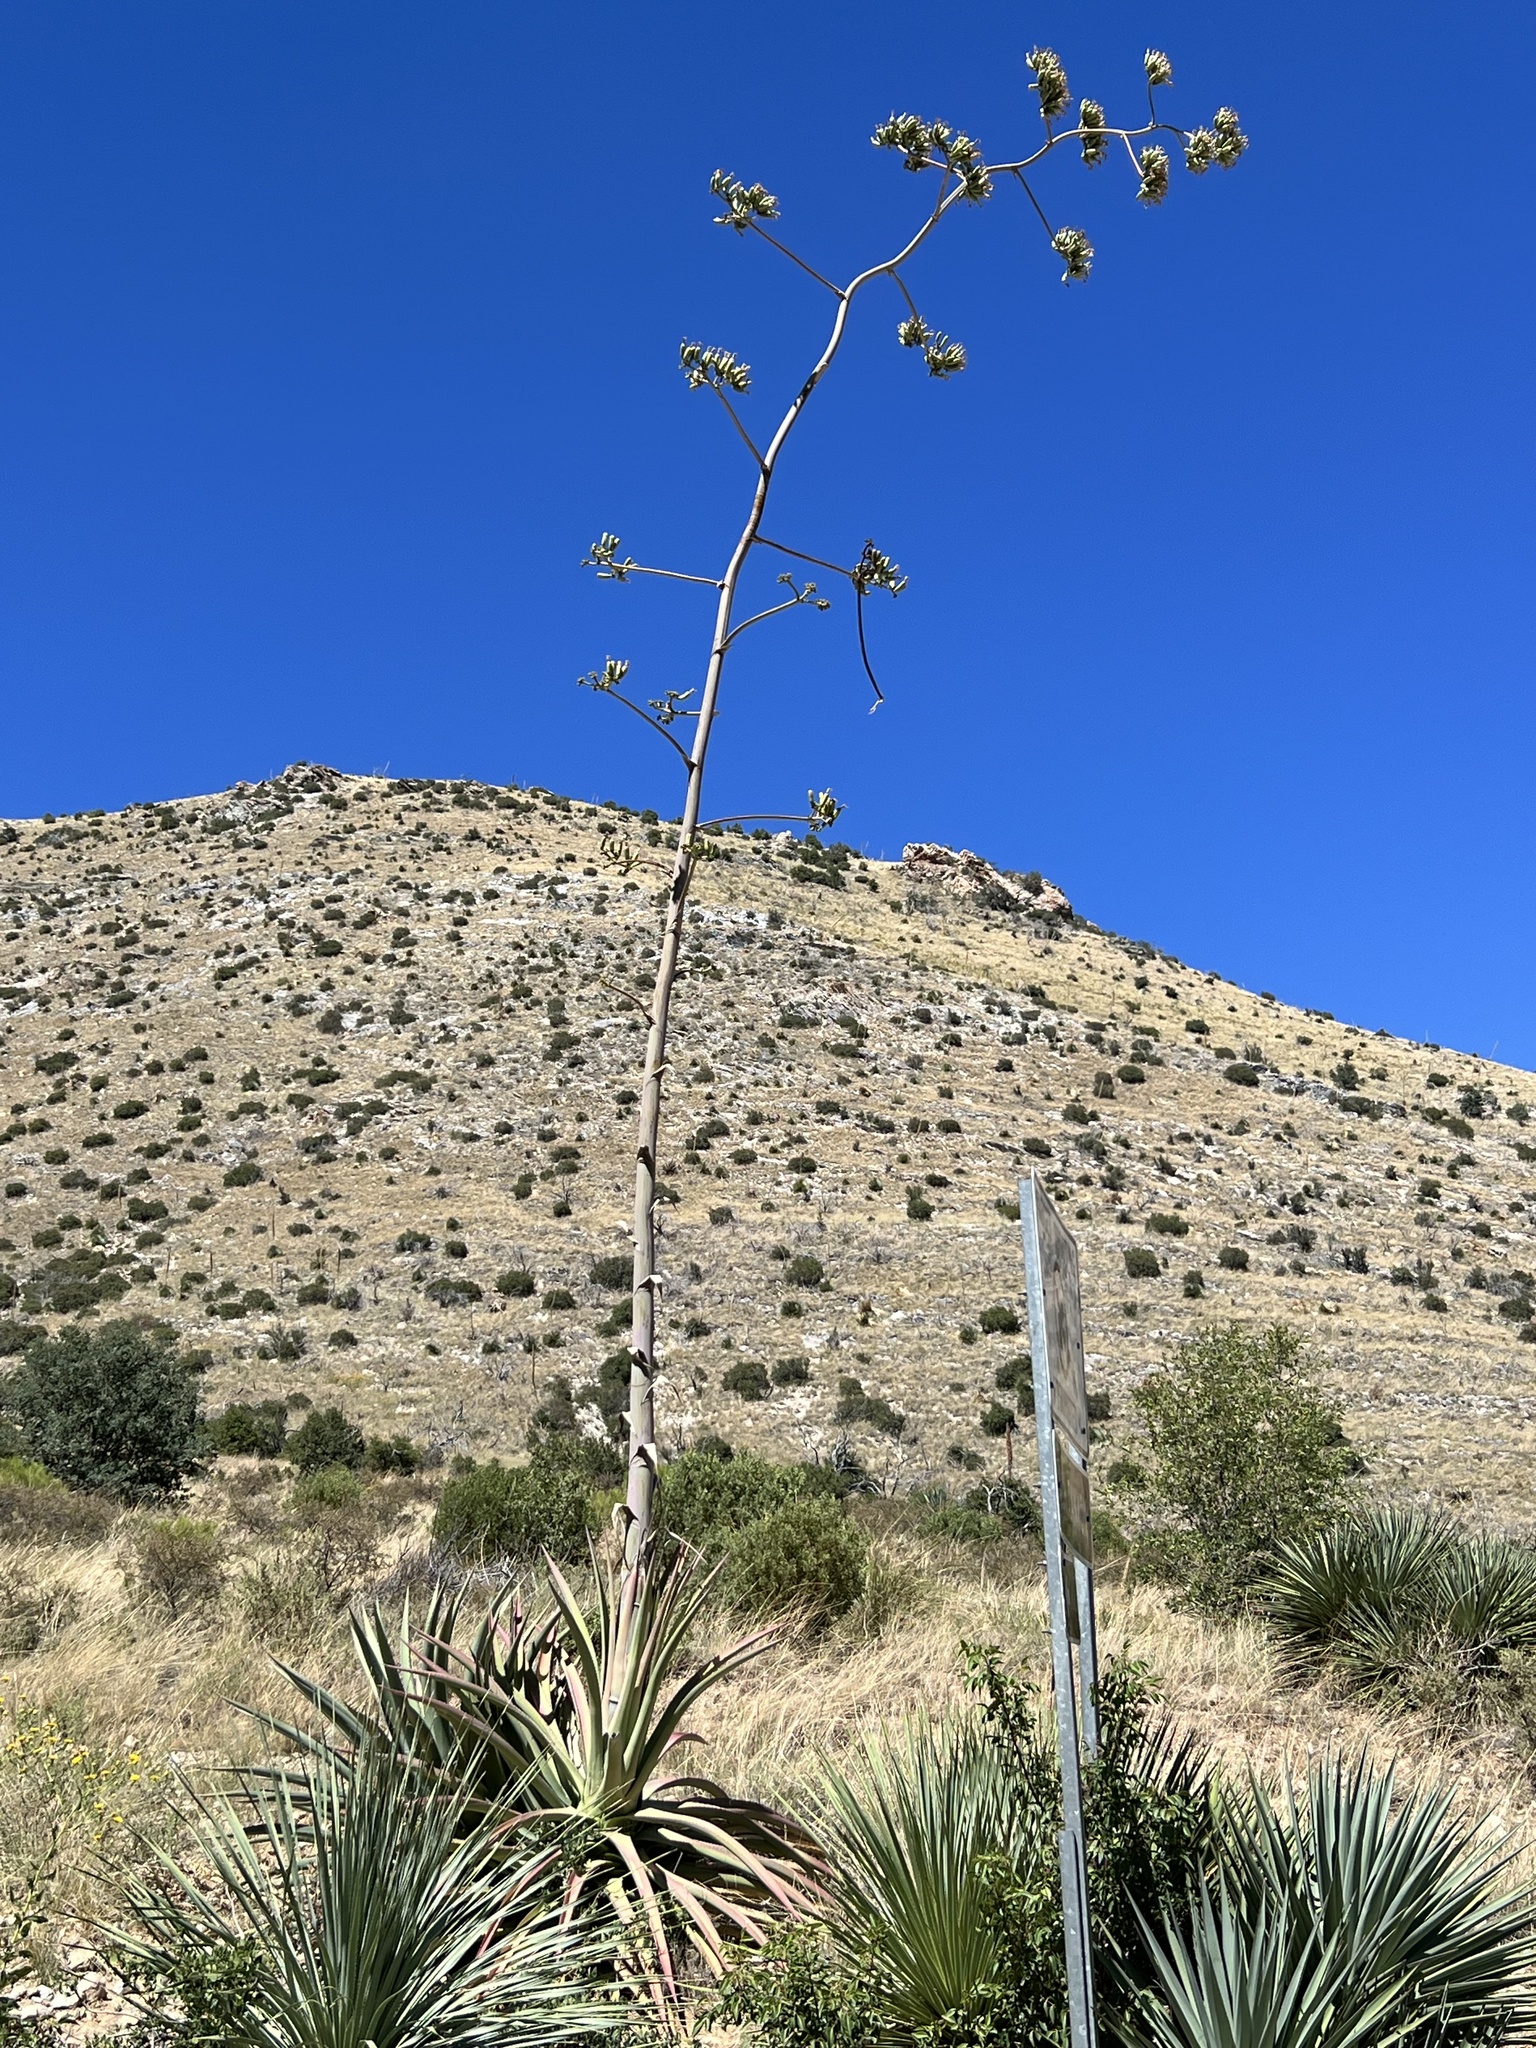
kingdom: Plantae
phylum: Tracheophyta
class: Liliopsida
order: Asparagales
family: Asparagaceae
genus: Agave
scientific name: Agave palmeri
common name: Palmer agave
